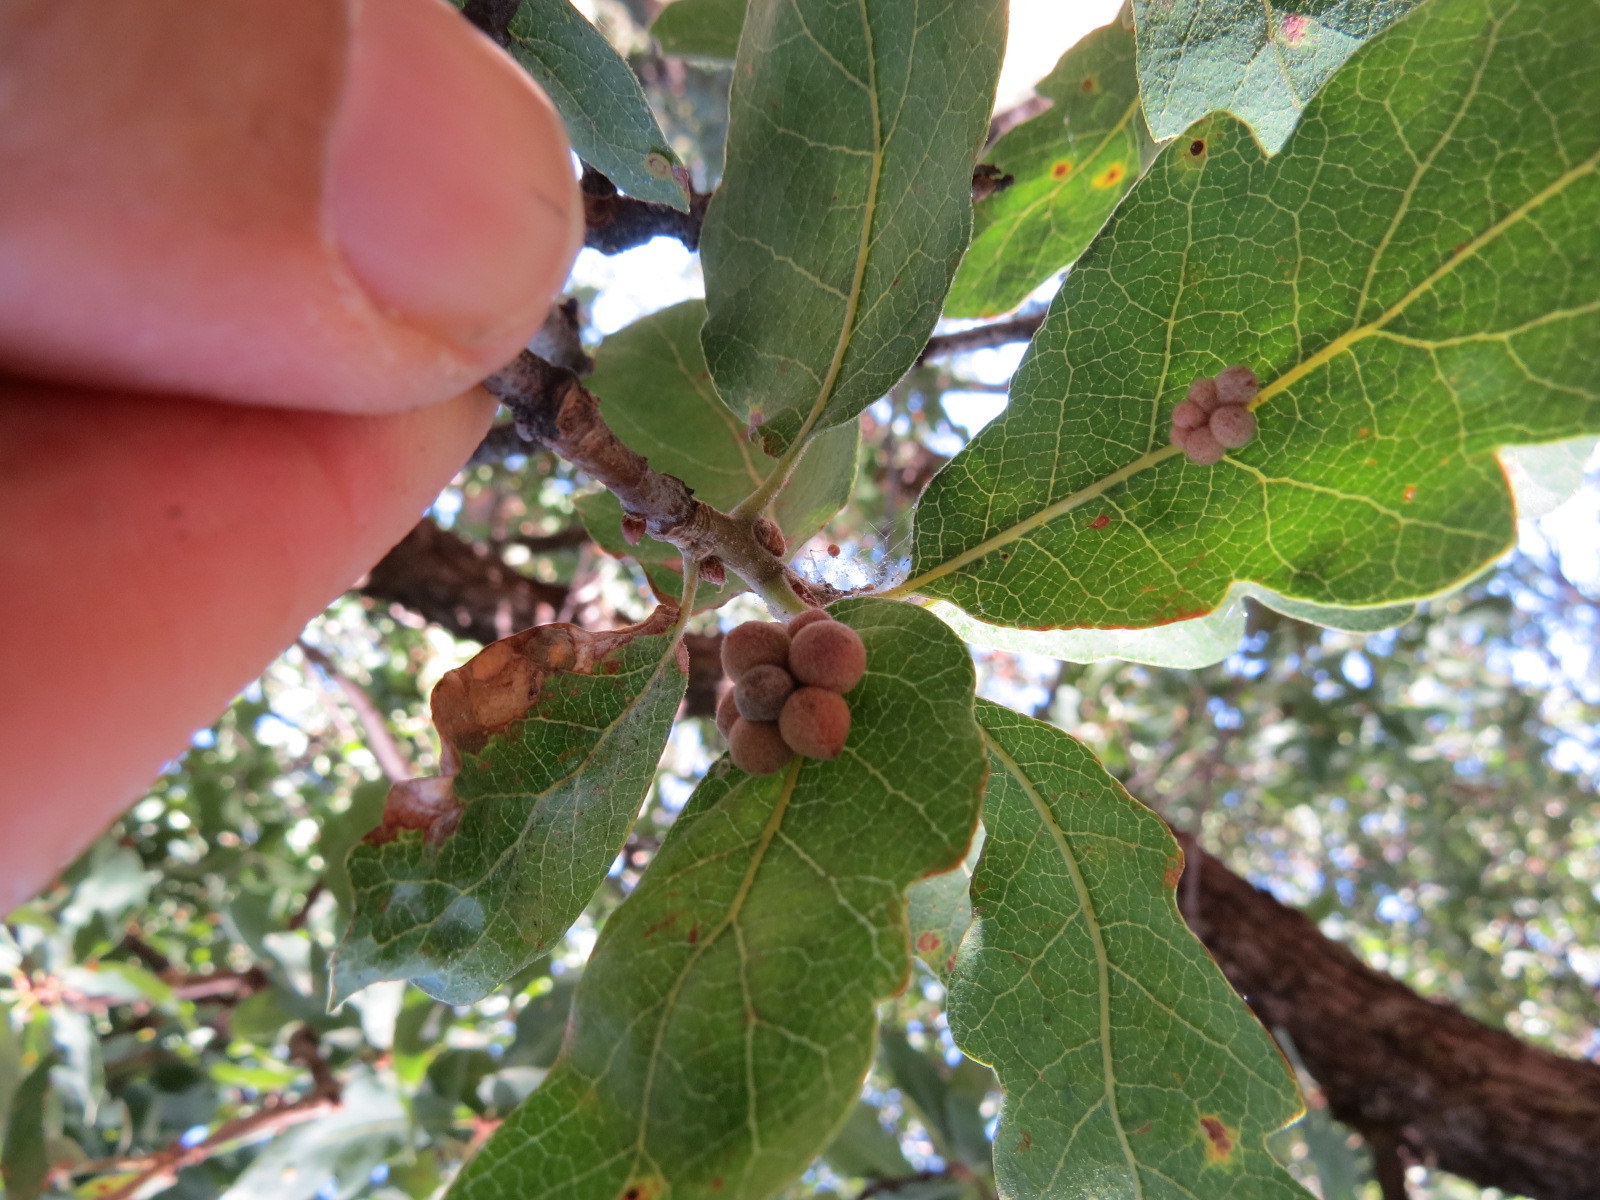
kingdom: Animalia
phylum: Arthropoda
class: Insecta
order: Hymenoptera
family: Cynipidae
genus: Andricus
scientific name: Andricus
